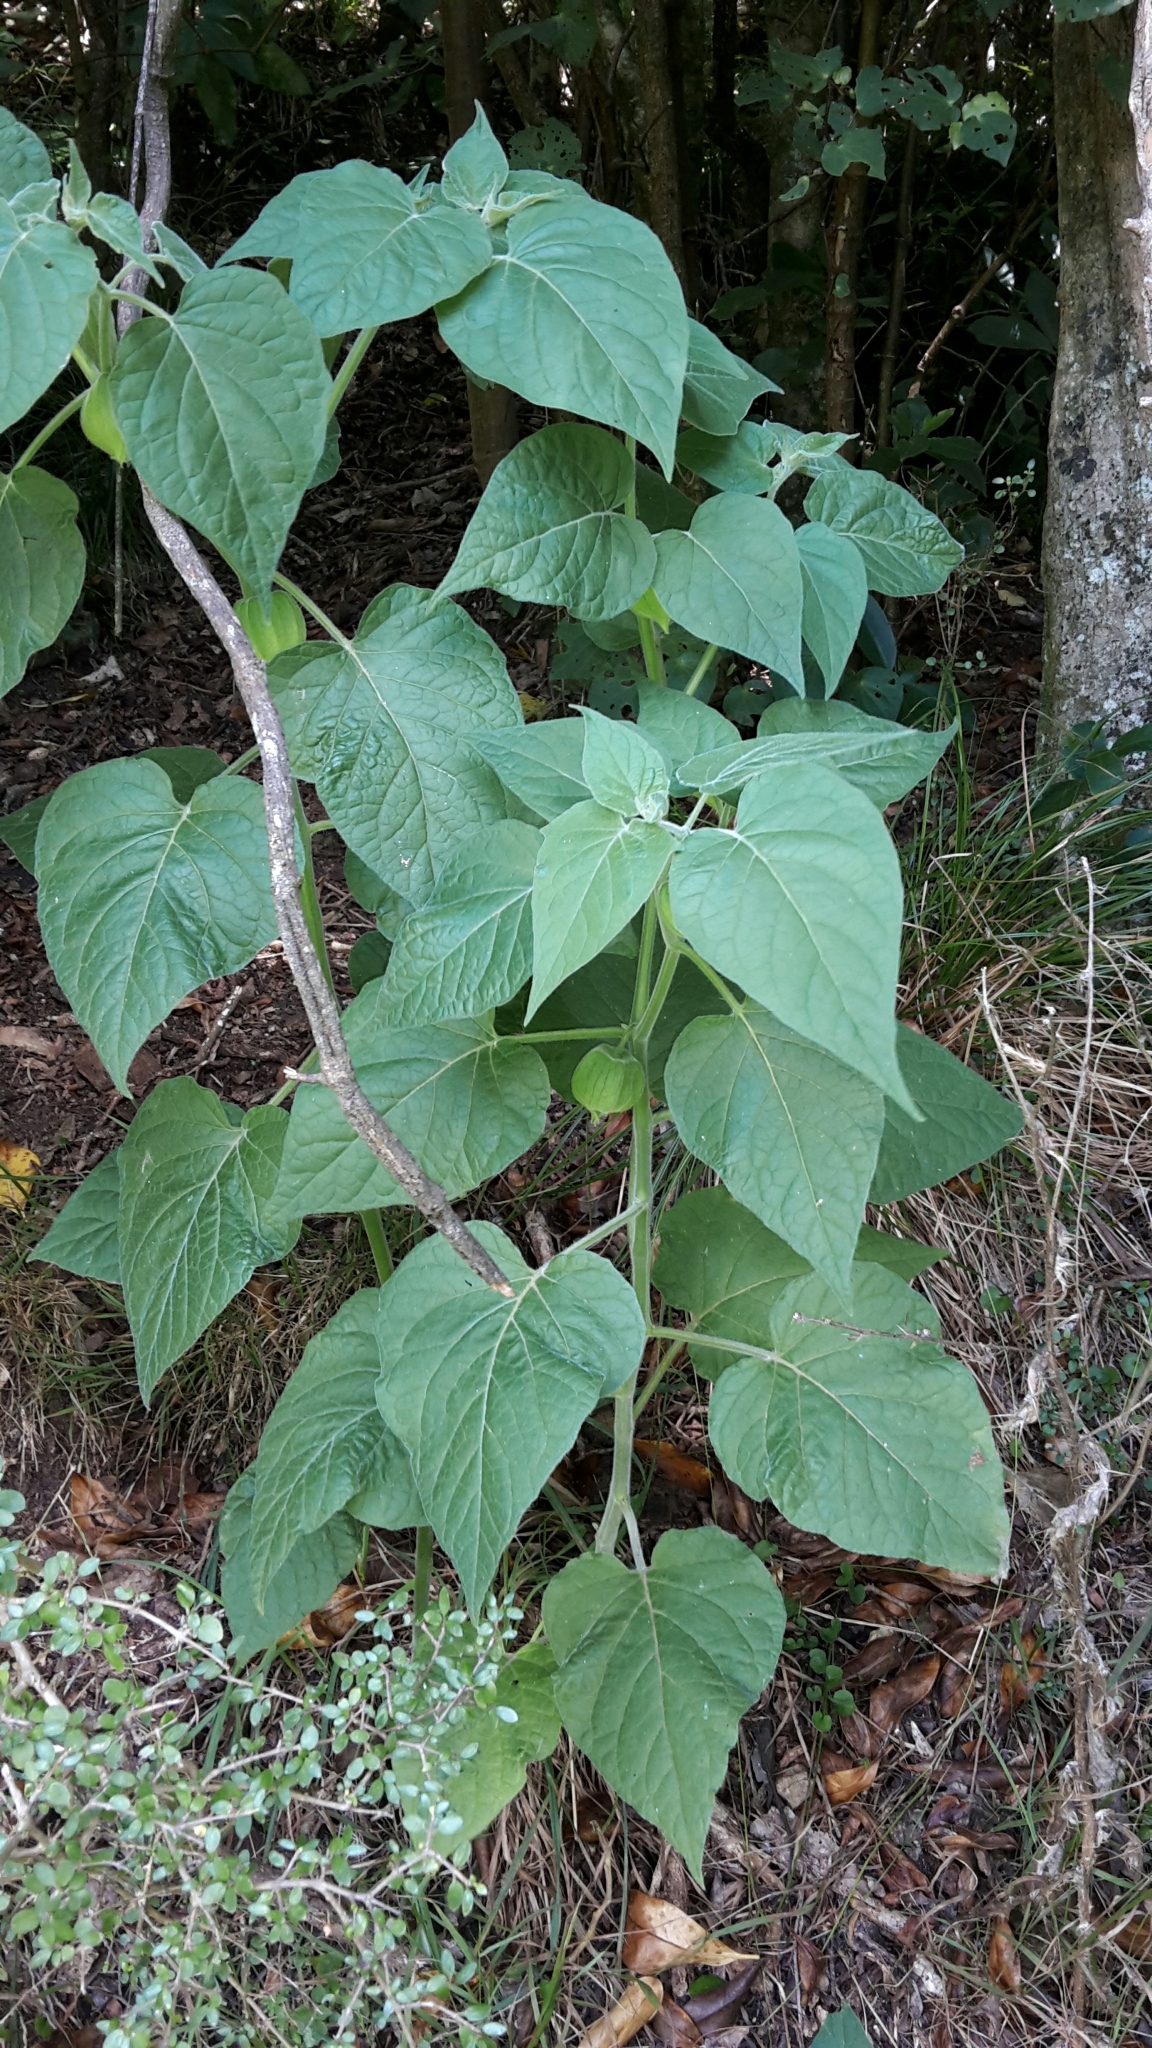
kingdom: Plantae
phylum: Tracheophyta
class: Magnoliopsida
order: Solanales
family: Solanaceae
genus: Physalis
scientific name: Physalis peruviana
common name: Cape-gooseberry
